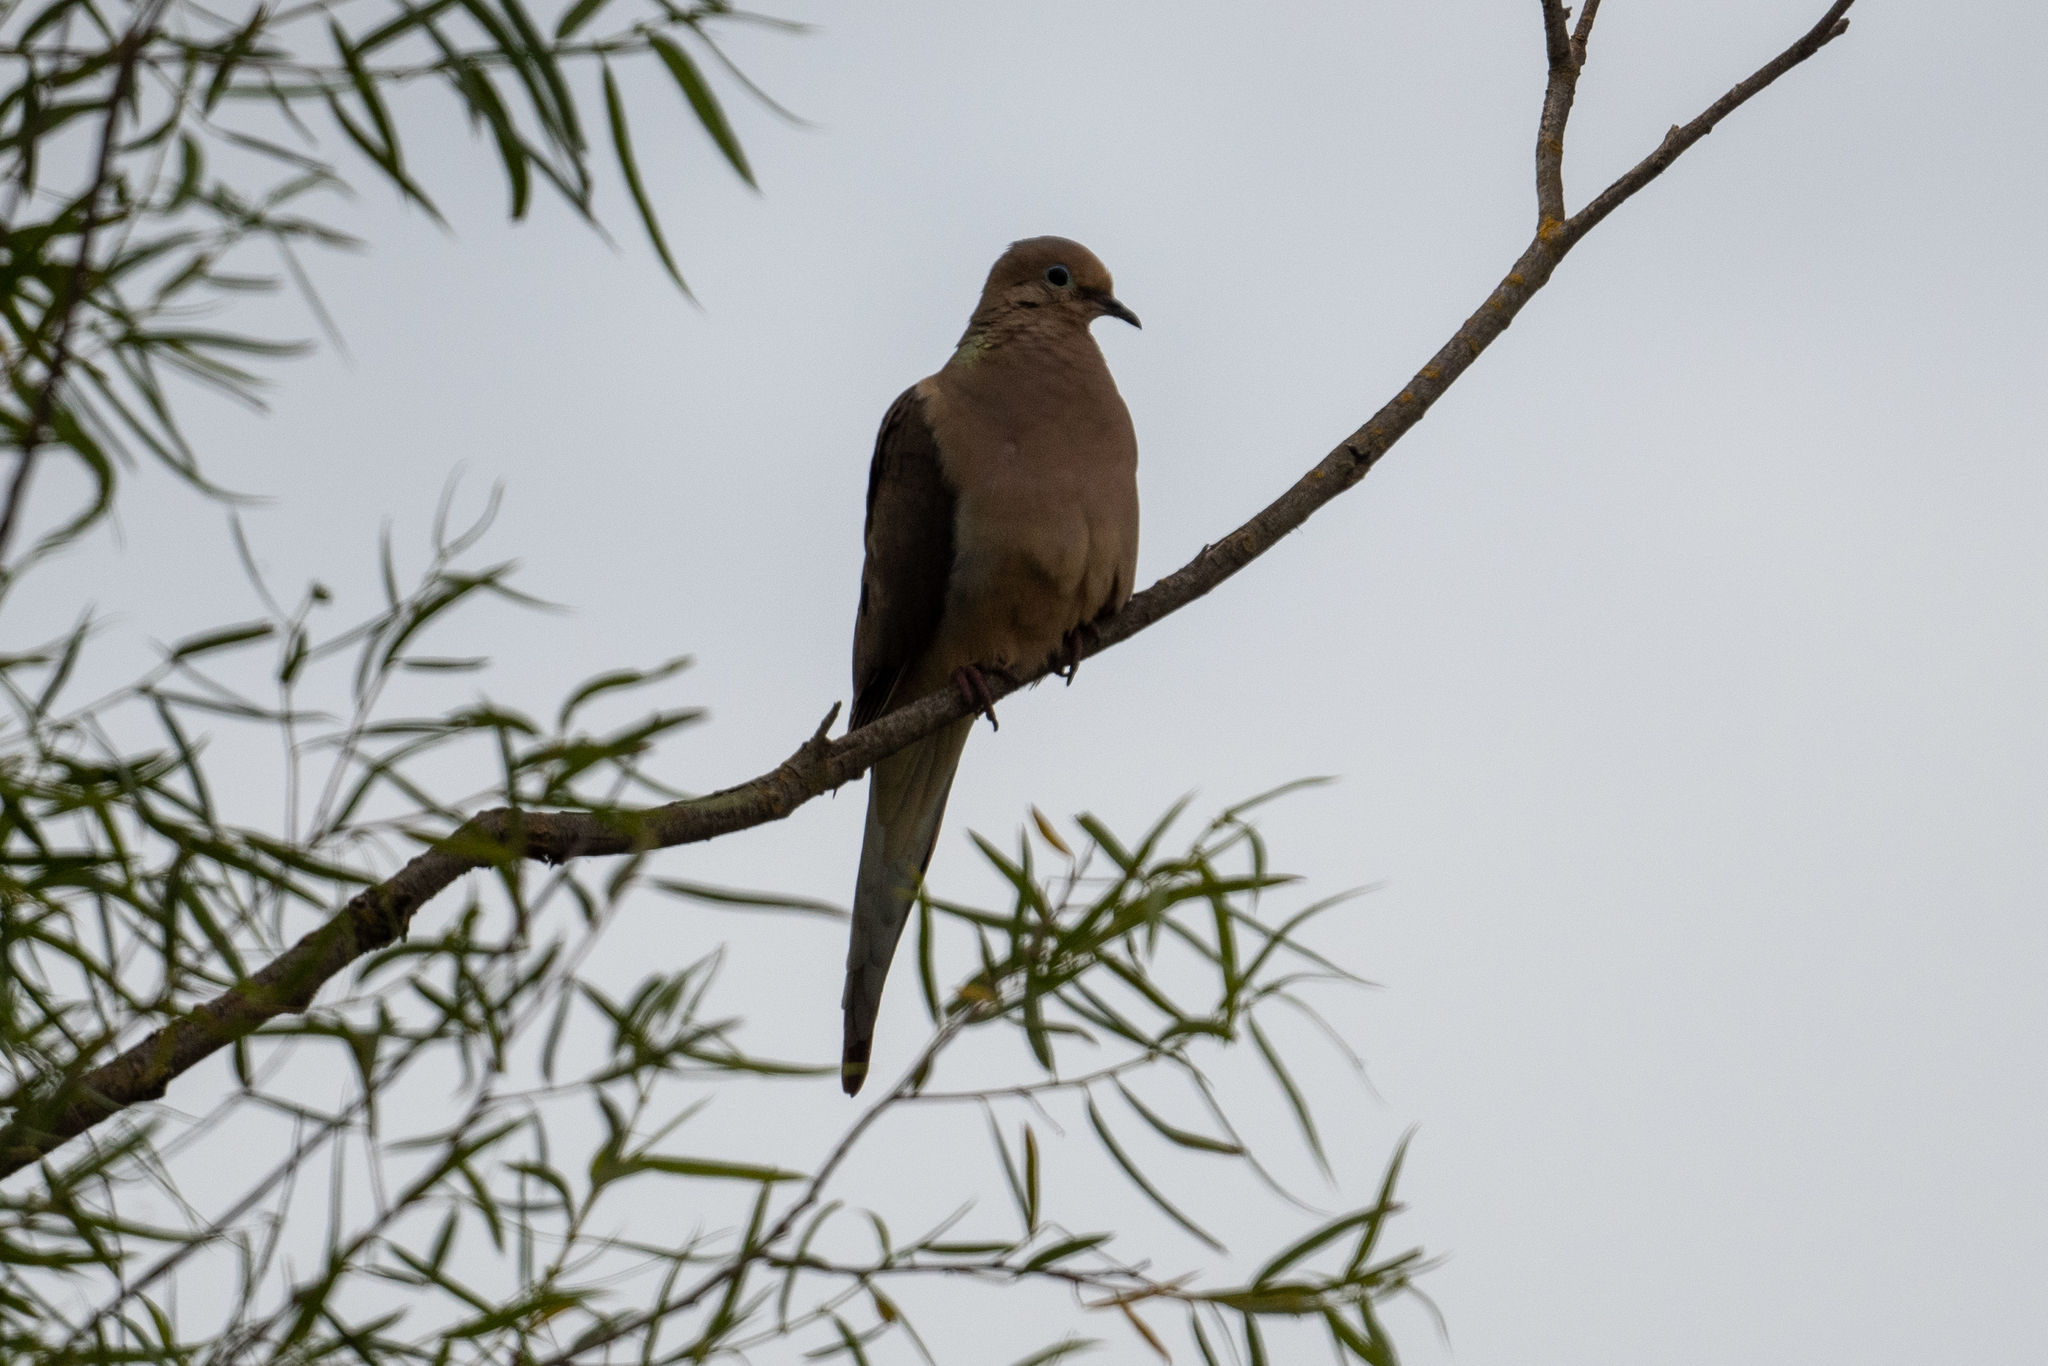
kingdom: Animalia
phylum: Chordata
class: Aves
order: Columbiformes
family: Columbidae
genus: Zenaida
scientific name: Zenaida macroura
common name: Mourning dove
